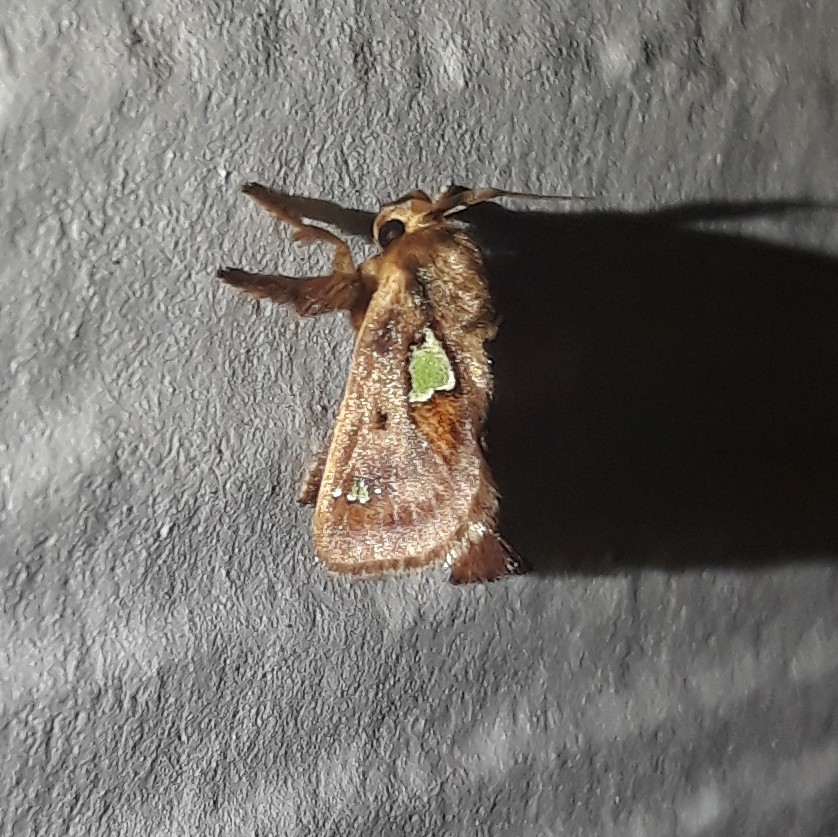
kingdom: Animalia
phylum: Arthropoda
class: Insecta
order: Lepidoptera
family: Limacodidae
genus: Euclea
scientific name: Euclea delphinii
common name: Spiny oak-slug moth
